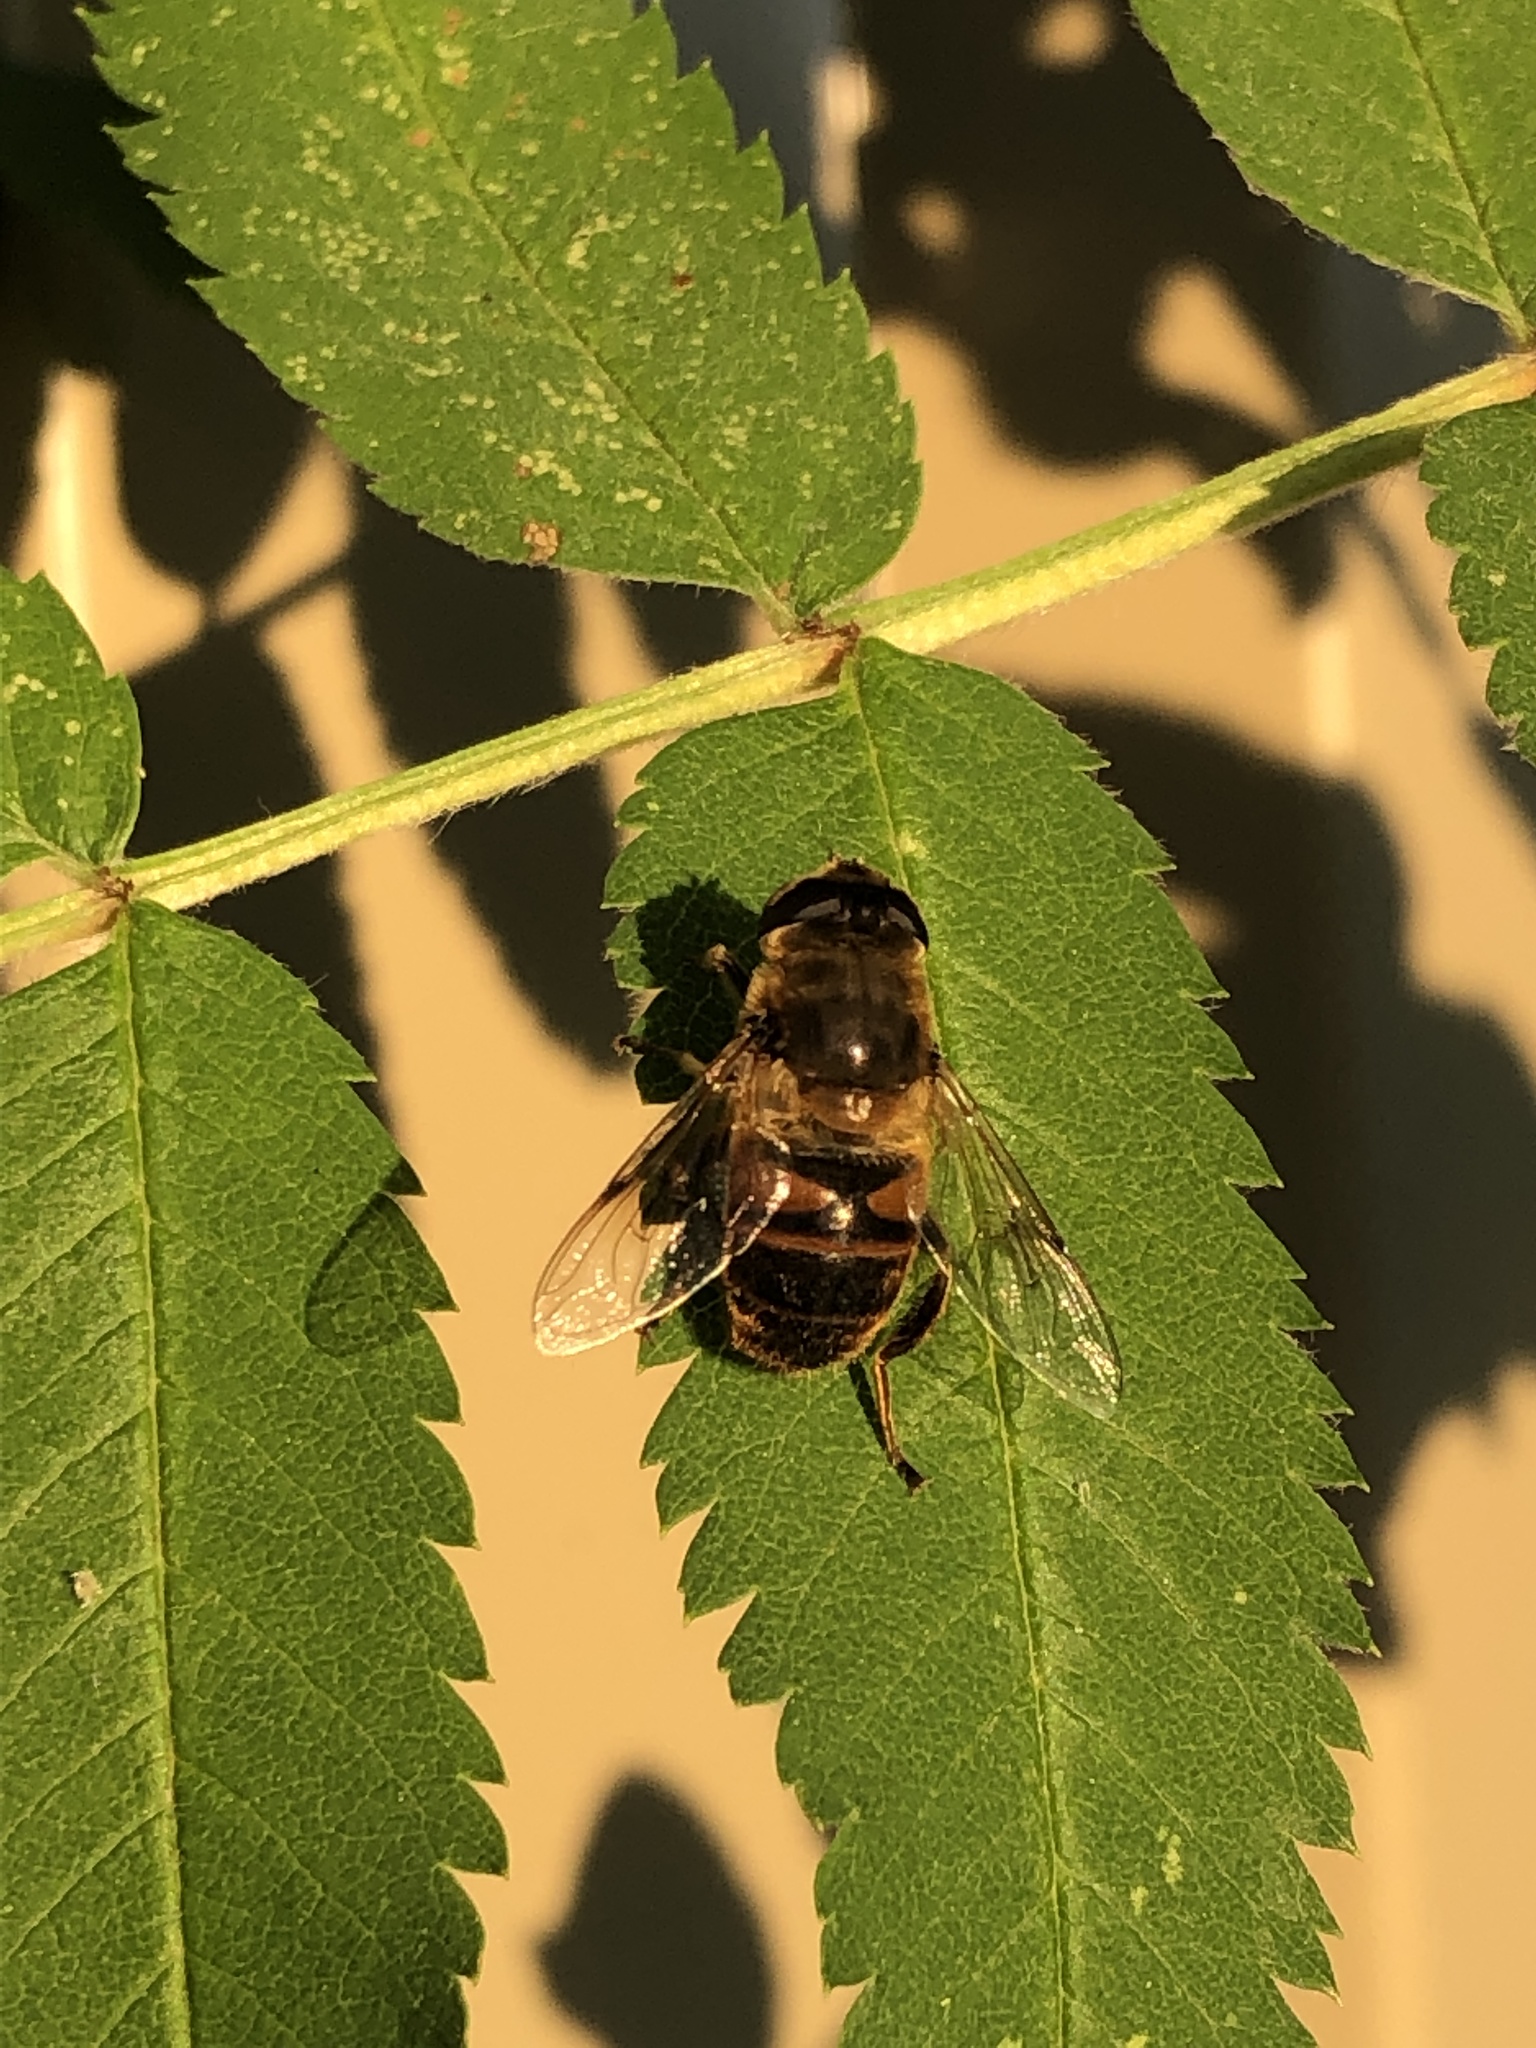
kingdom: Animalia
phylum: Arthropoda
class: Insecta
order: Diptera
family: Syrphidae
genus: Eristalis
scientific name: Eristalis tenax
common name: Drone fly
